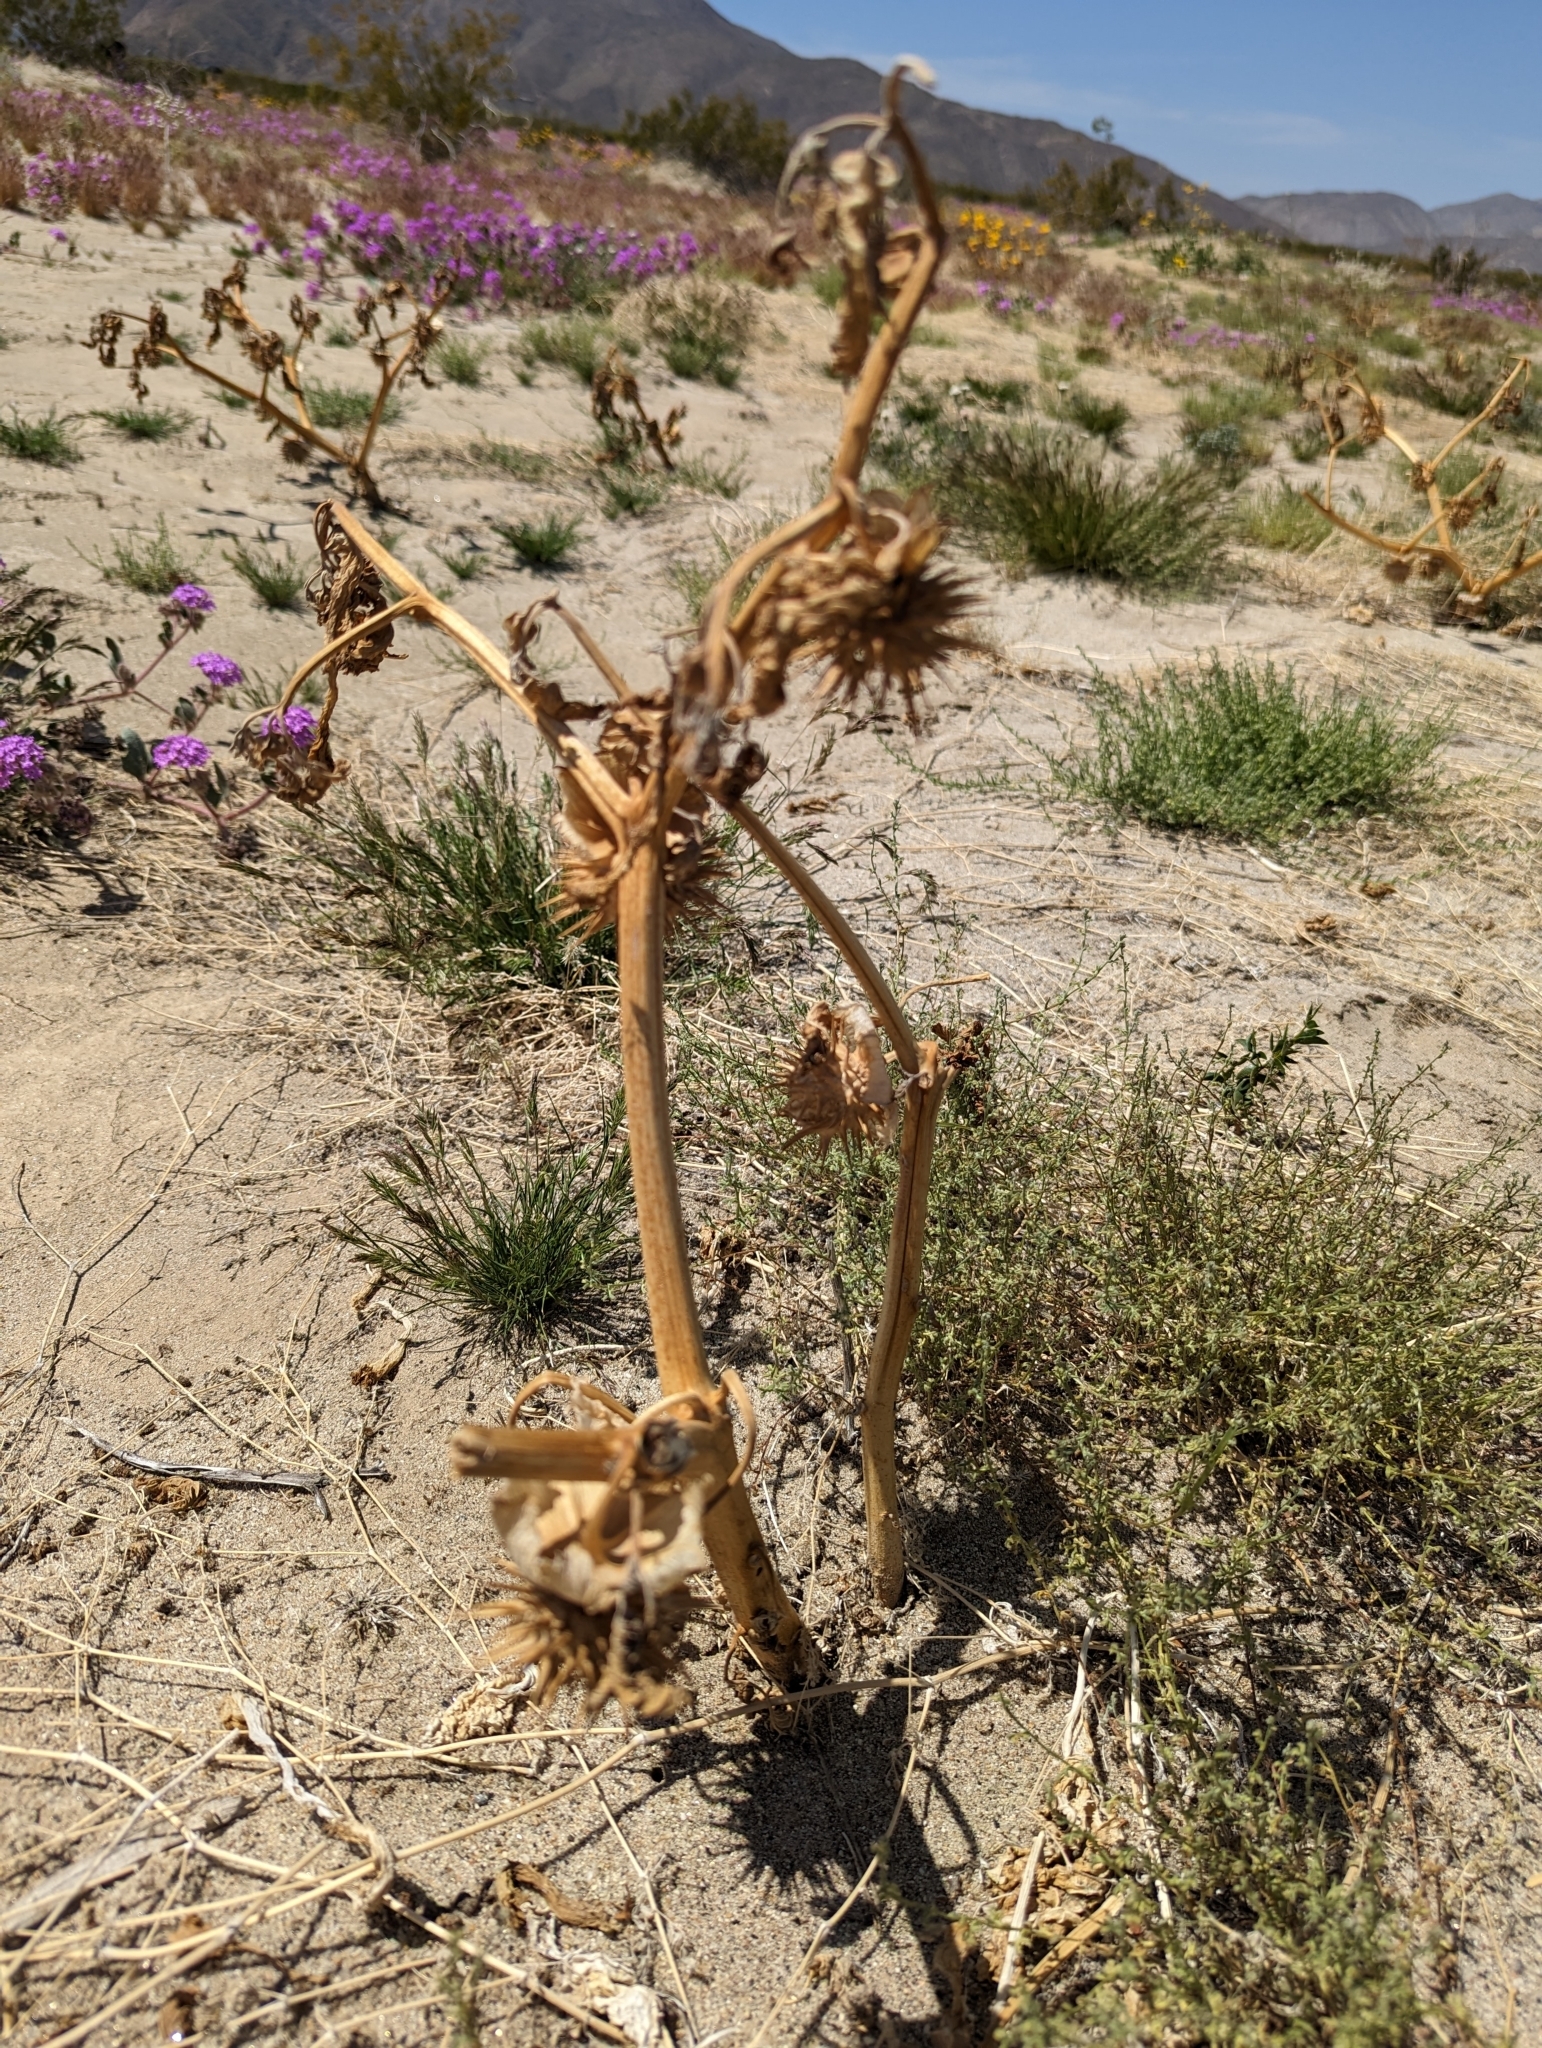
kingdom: Plantae
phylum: Tracheophyta
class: Magnoliopsida
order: Solanales
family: Solanaceae
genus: Datura
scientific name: Datura discolor
